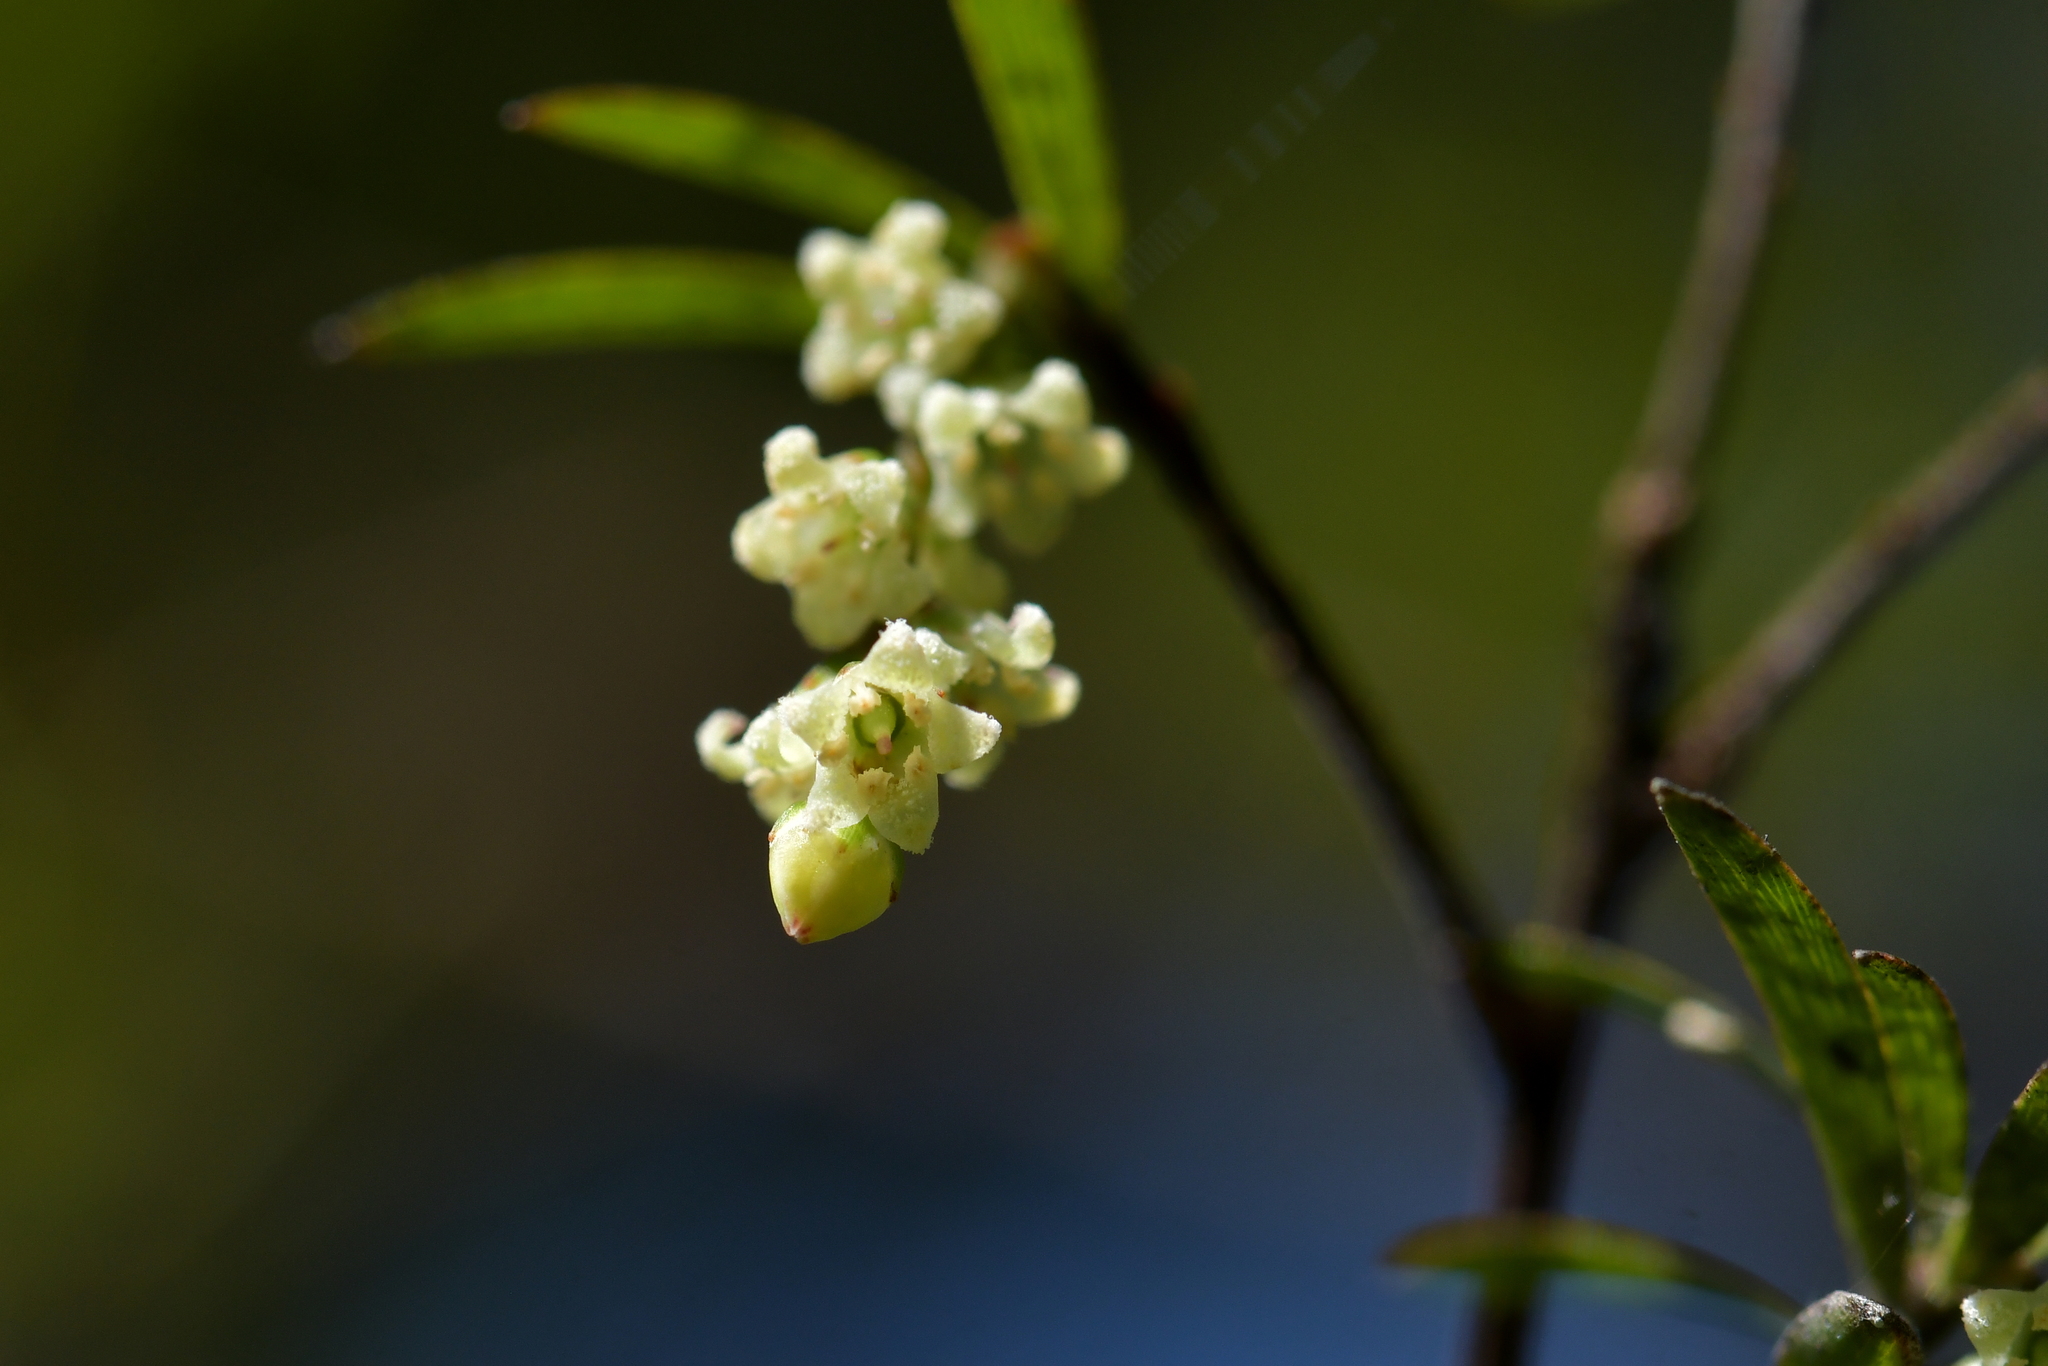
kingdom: Plantae
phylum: Tracheophyta
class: Magnoliopsida
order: Ericales
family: Ericaceae
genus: Leucopogon
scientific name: Leucopogon fasciculatus
